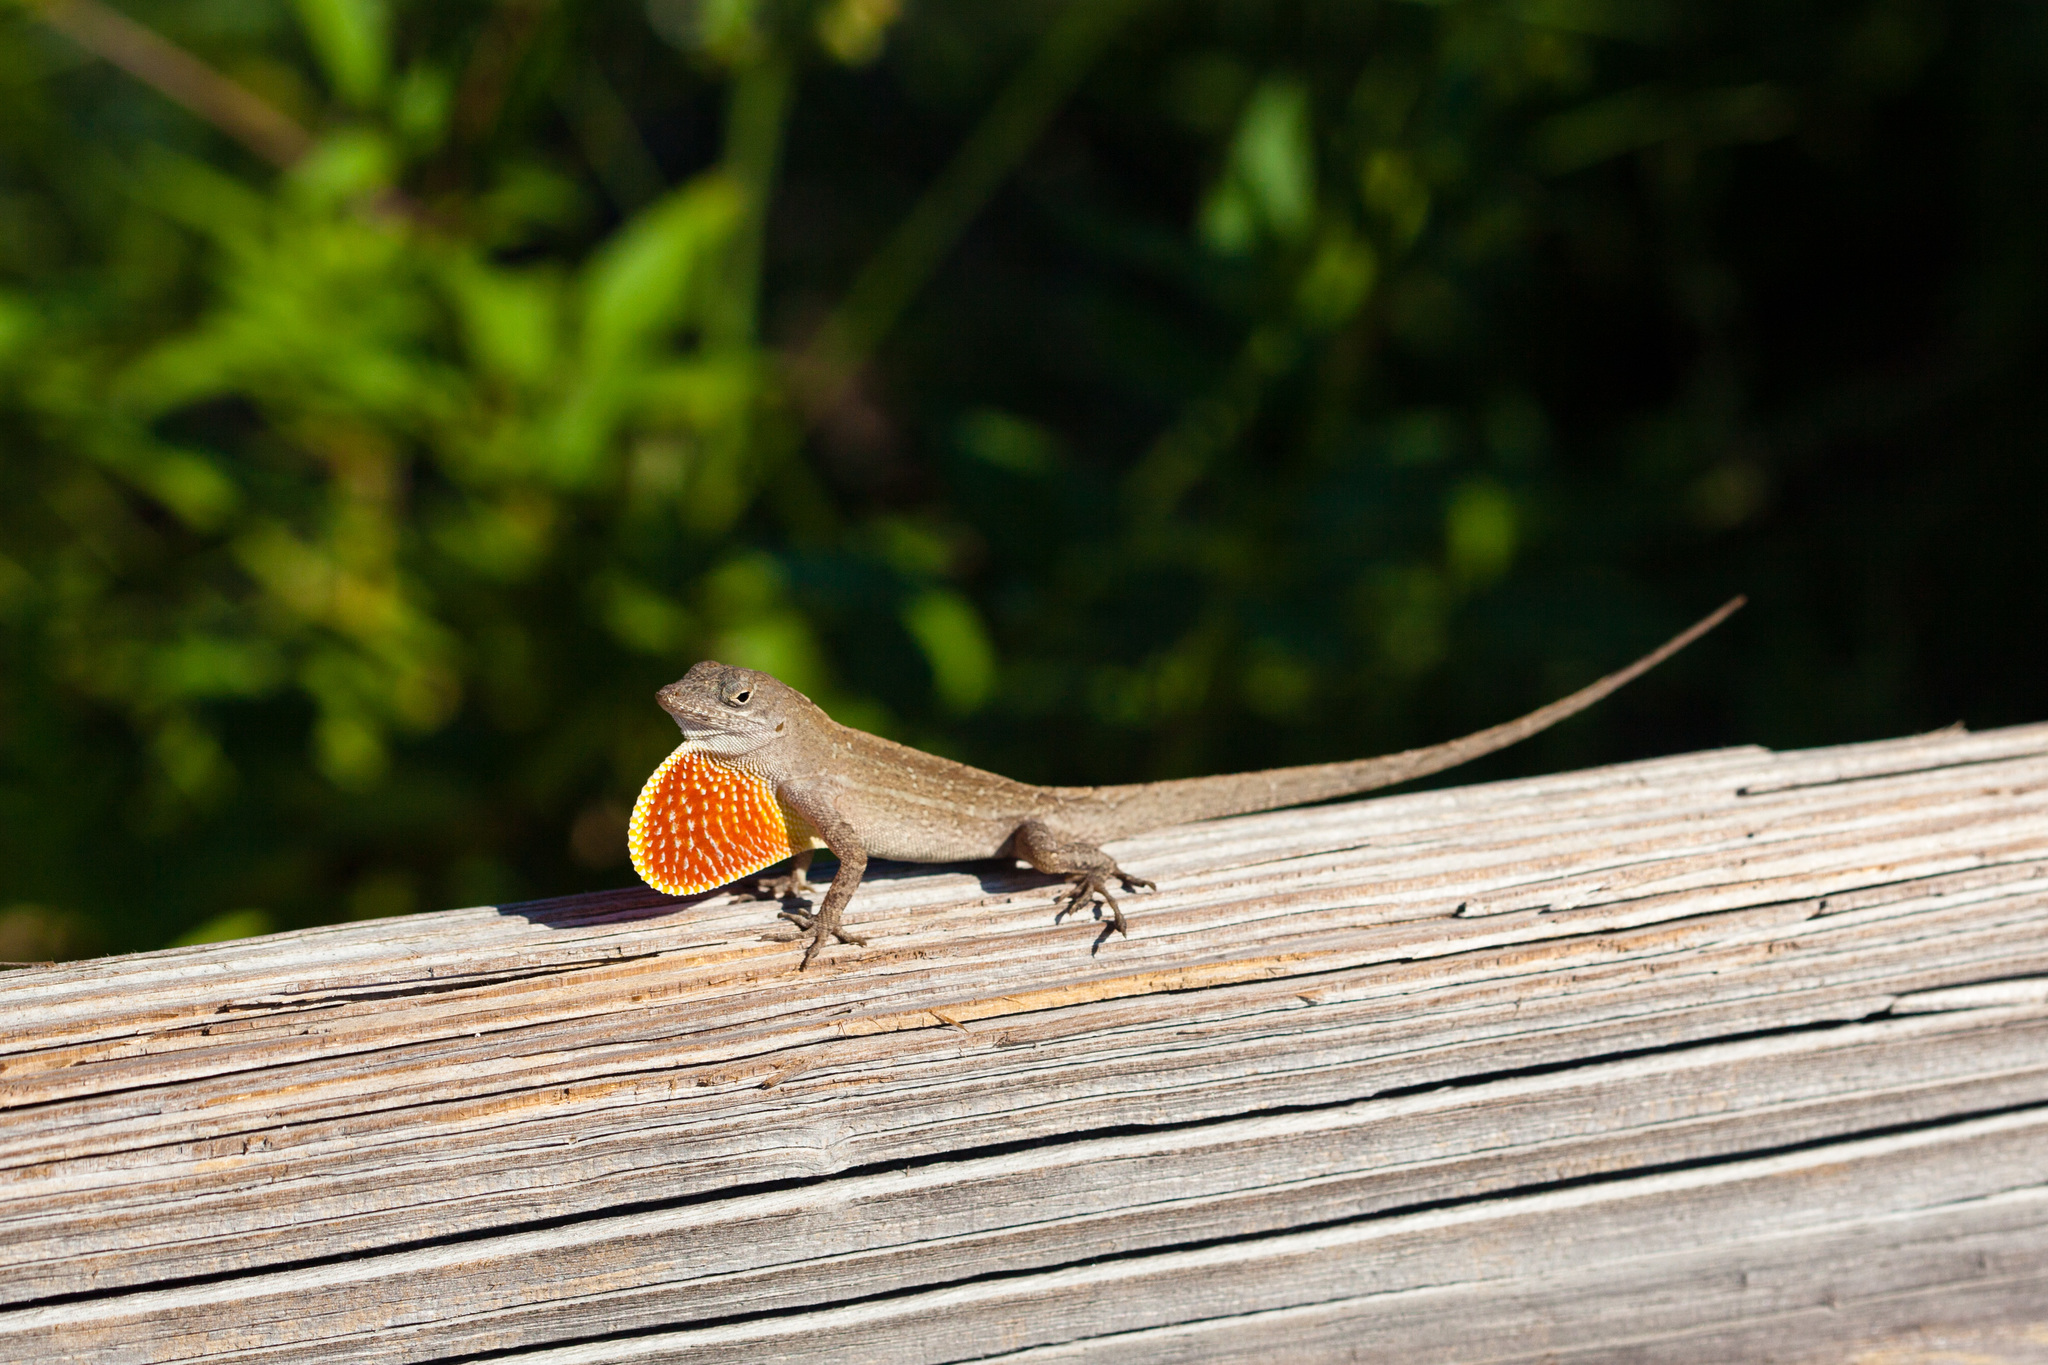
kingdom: Animalia
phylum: Chordata
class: Squamata
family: Dactyloidae
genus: Anolis
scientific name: Anolis sagrei
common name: Brown anole
